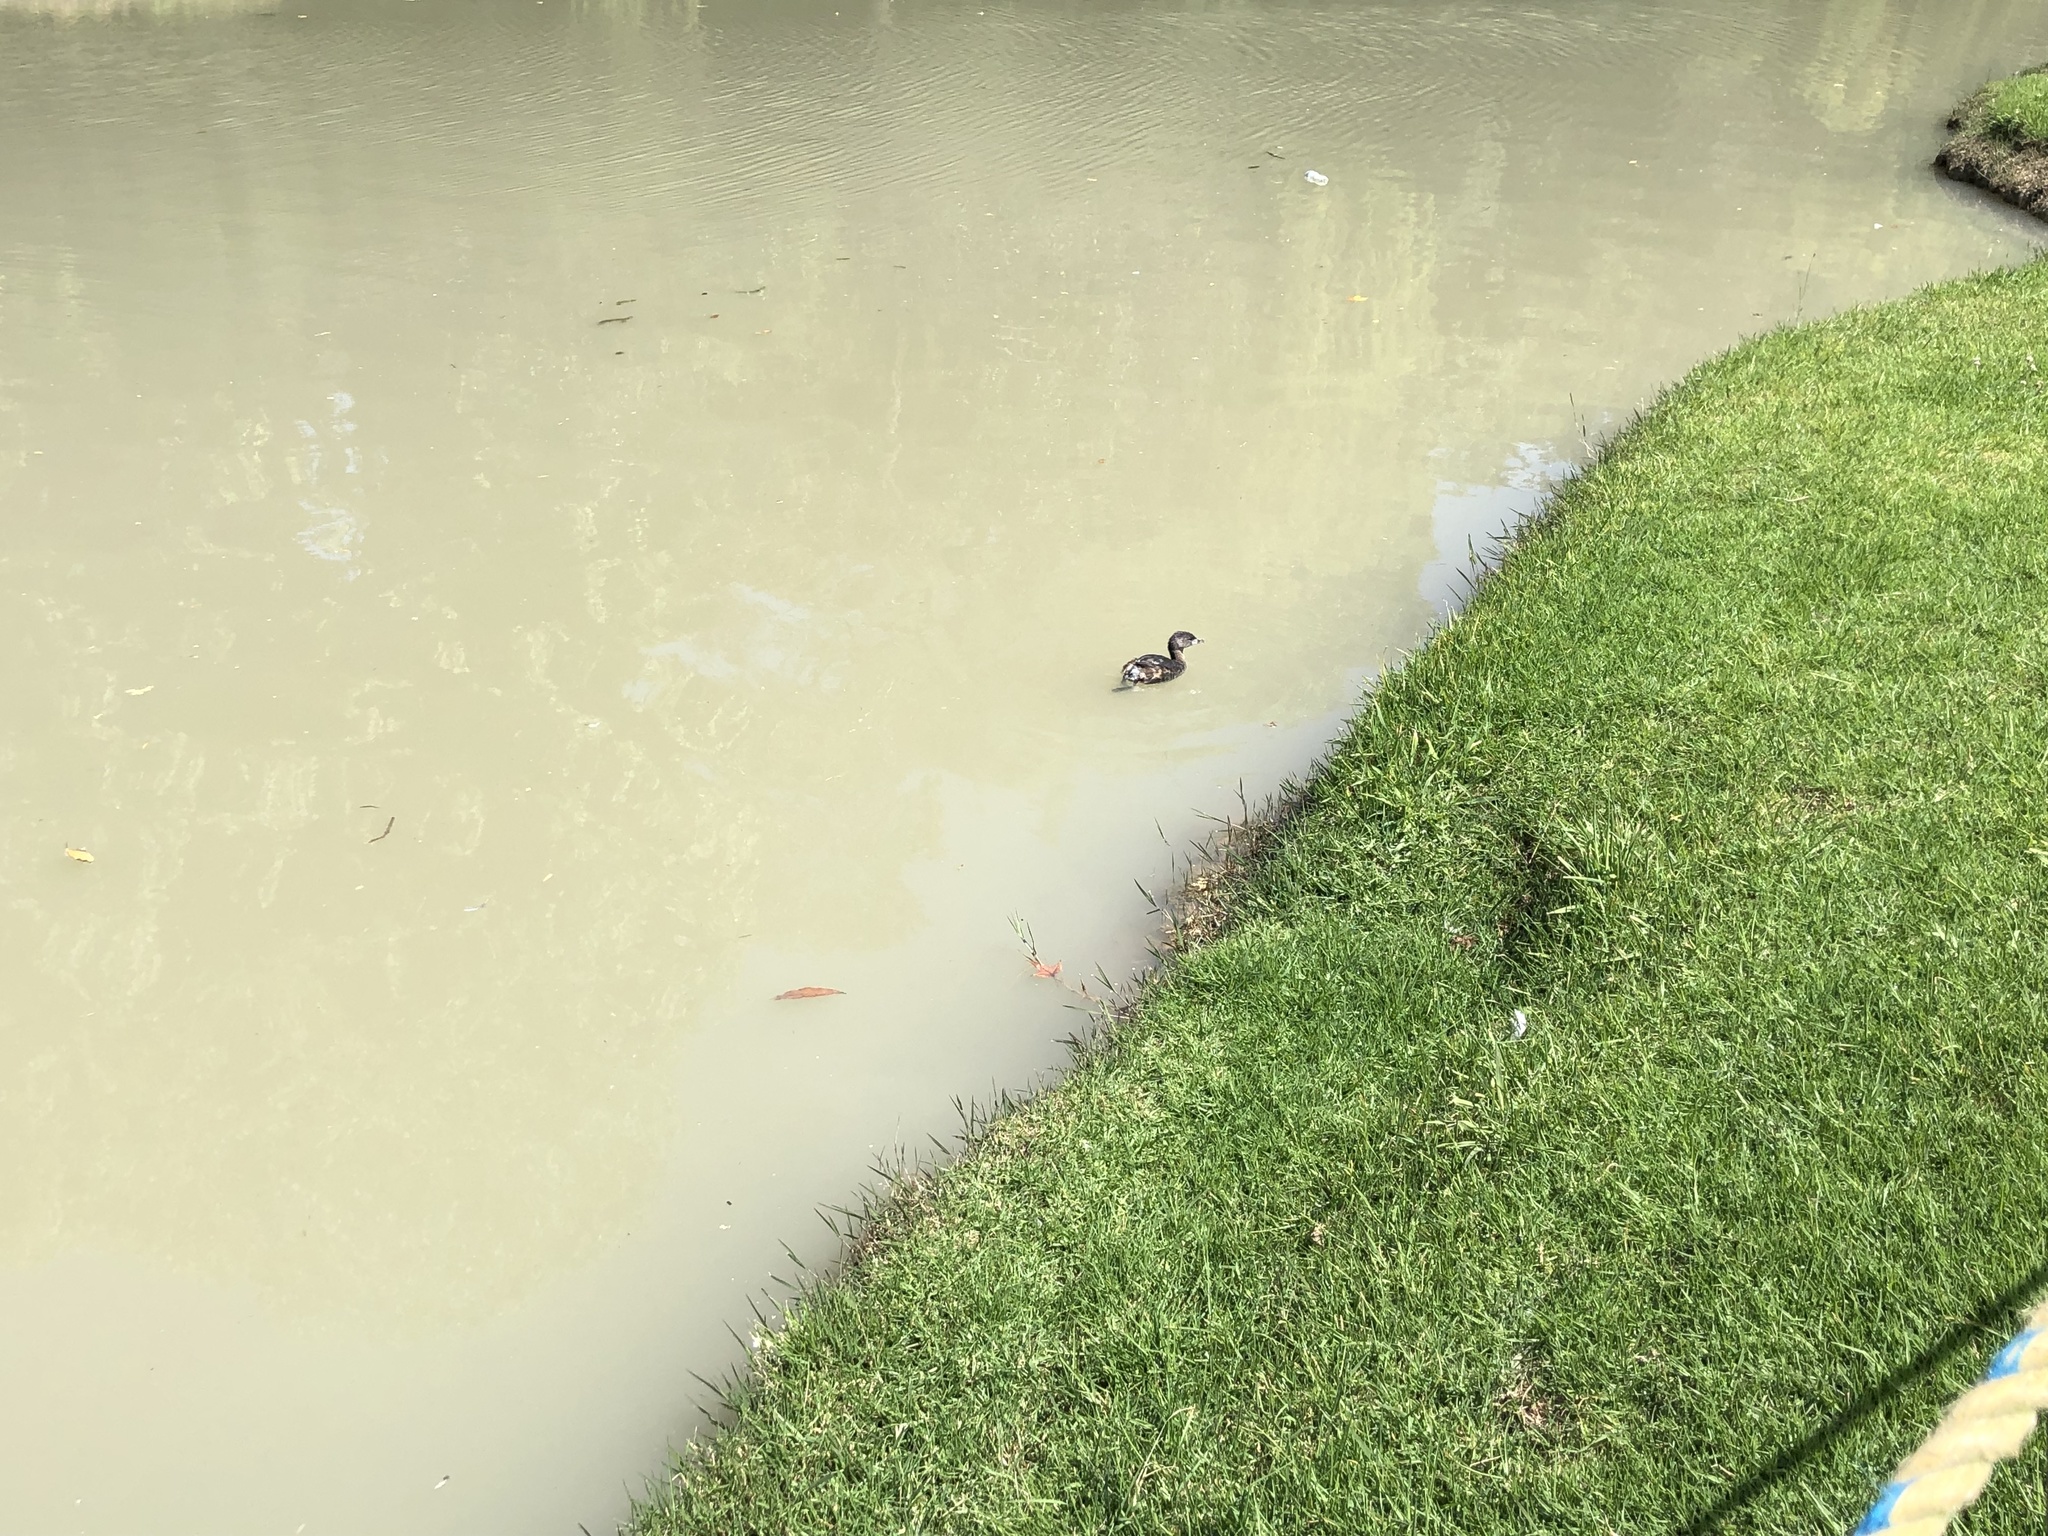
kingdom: Animalia
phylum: Chordata
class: Aves
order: Podicipediformes
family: Podicipedidae
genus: Podilymbus
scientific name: Podilymbus podiceps
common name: Pied-billed grebe
